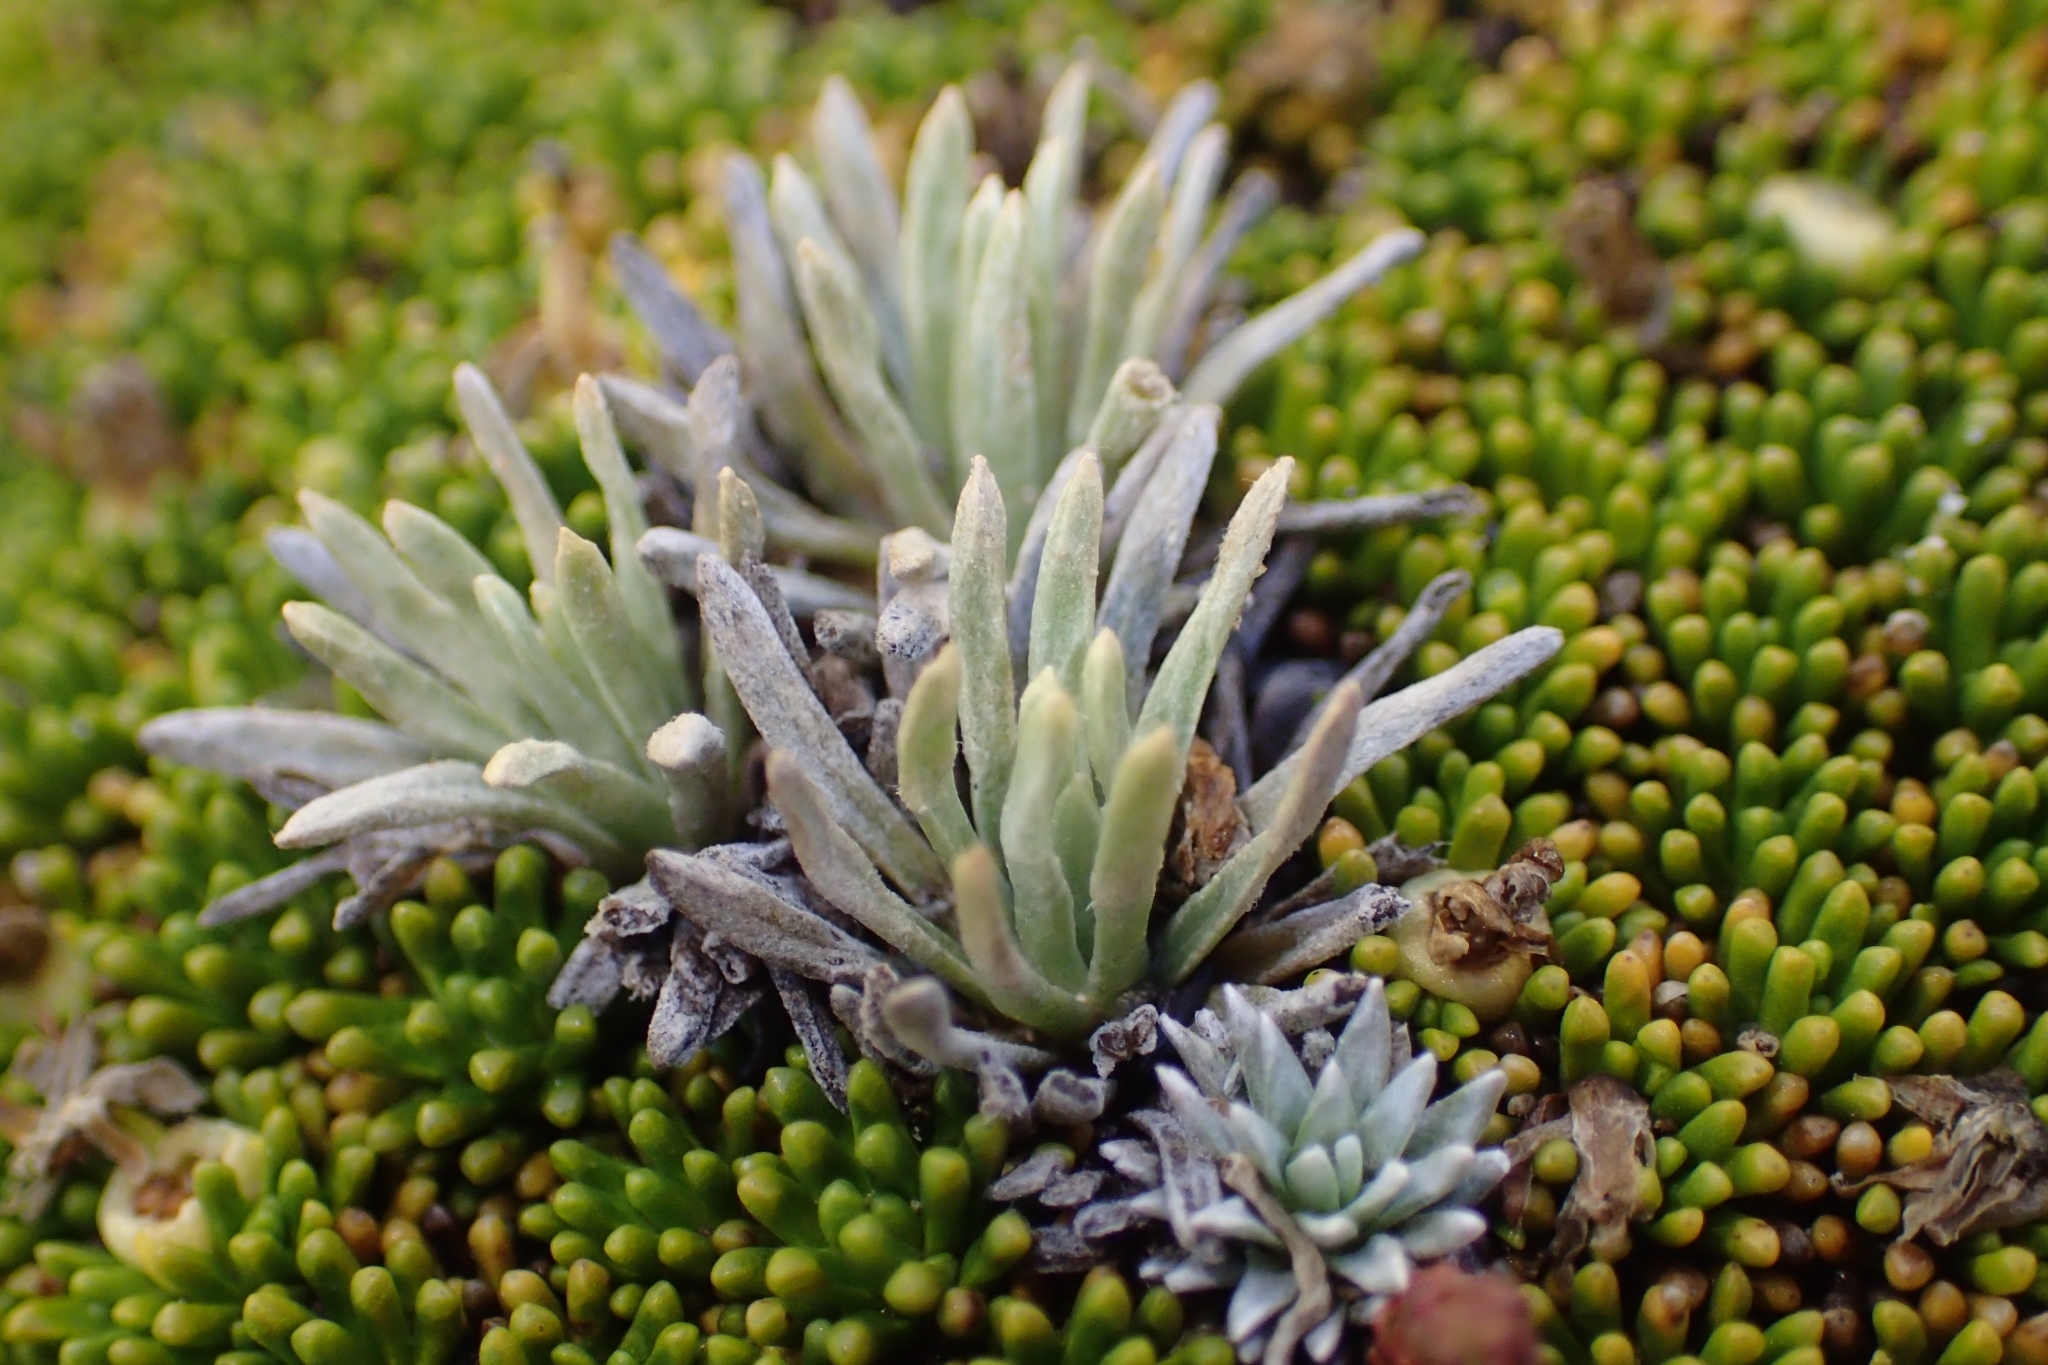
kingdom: Plantae
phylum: Tracheophyta
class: Magnoliopsida
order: Asterales
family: Asteraceae
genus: Celmisia
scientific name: Celmisia sessiliflora
